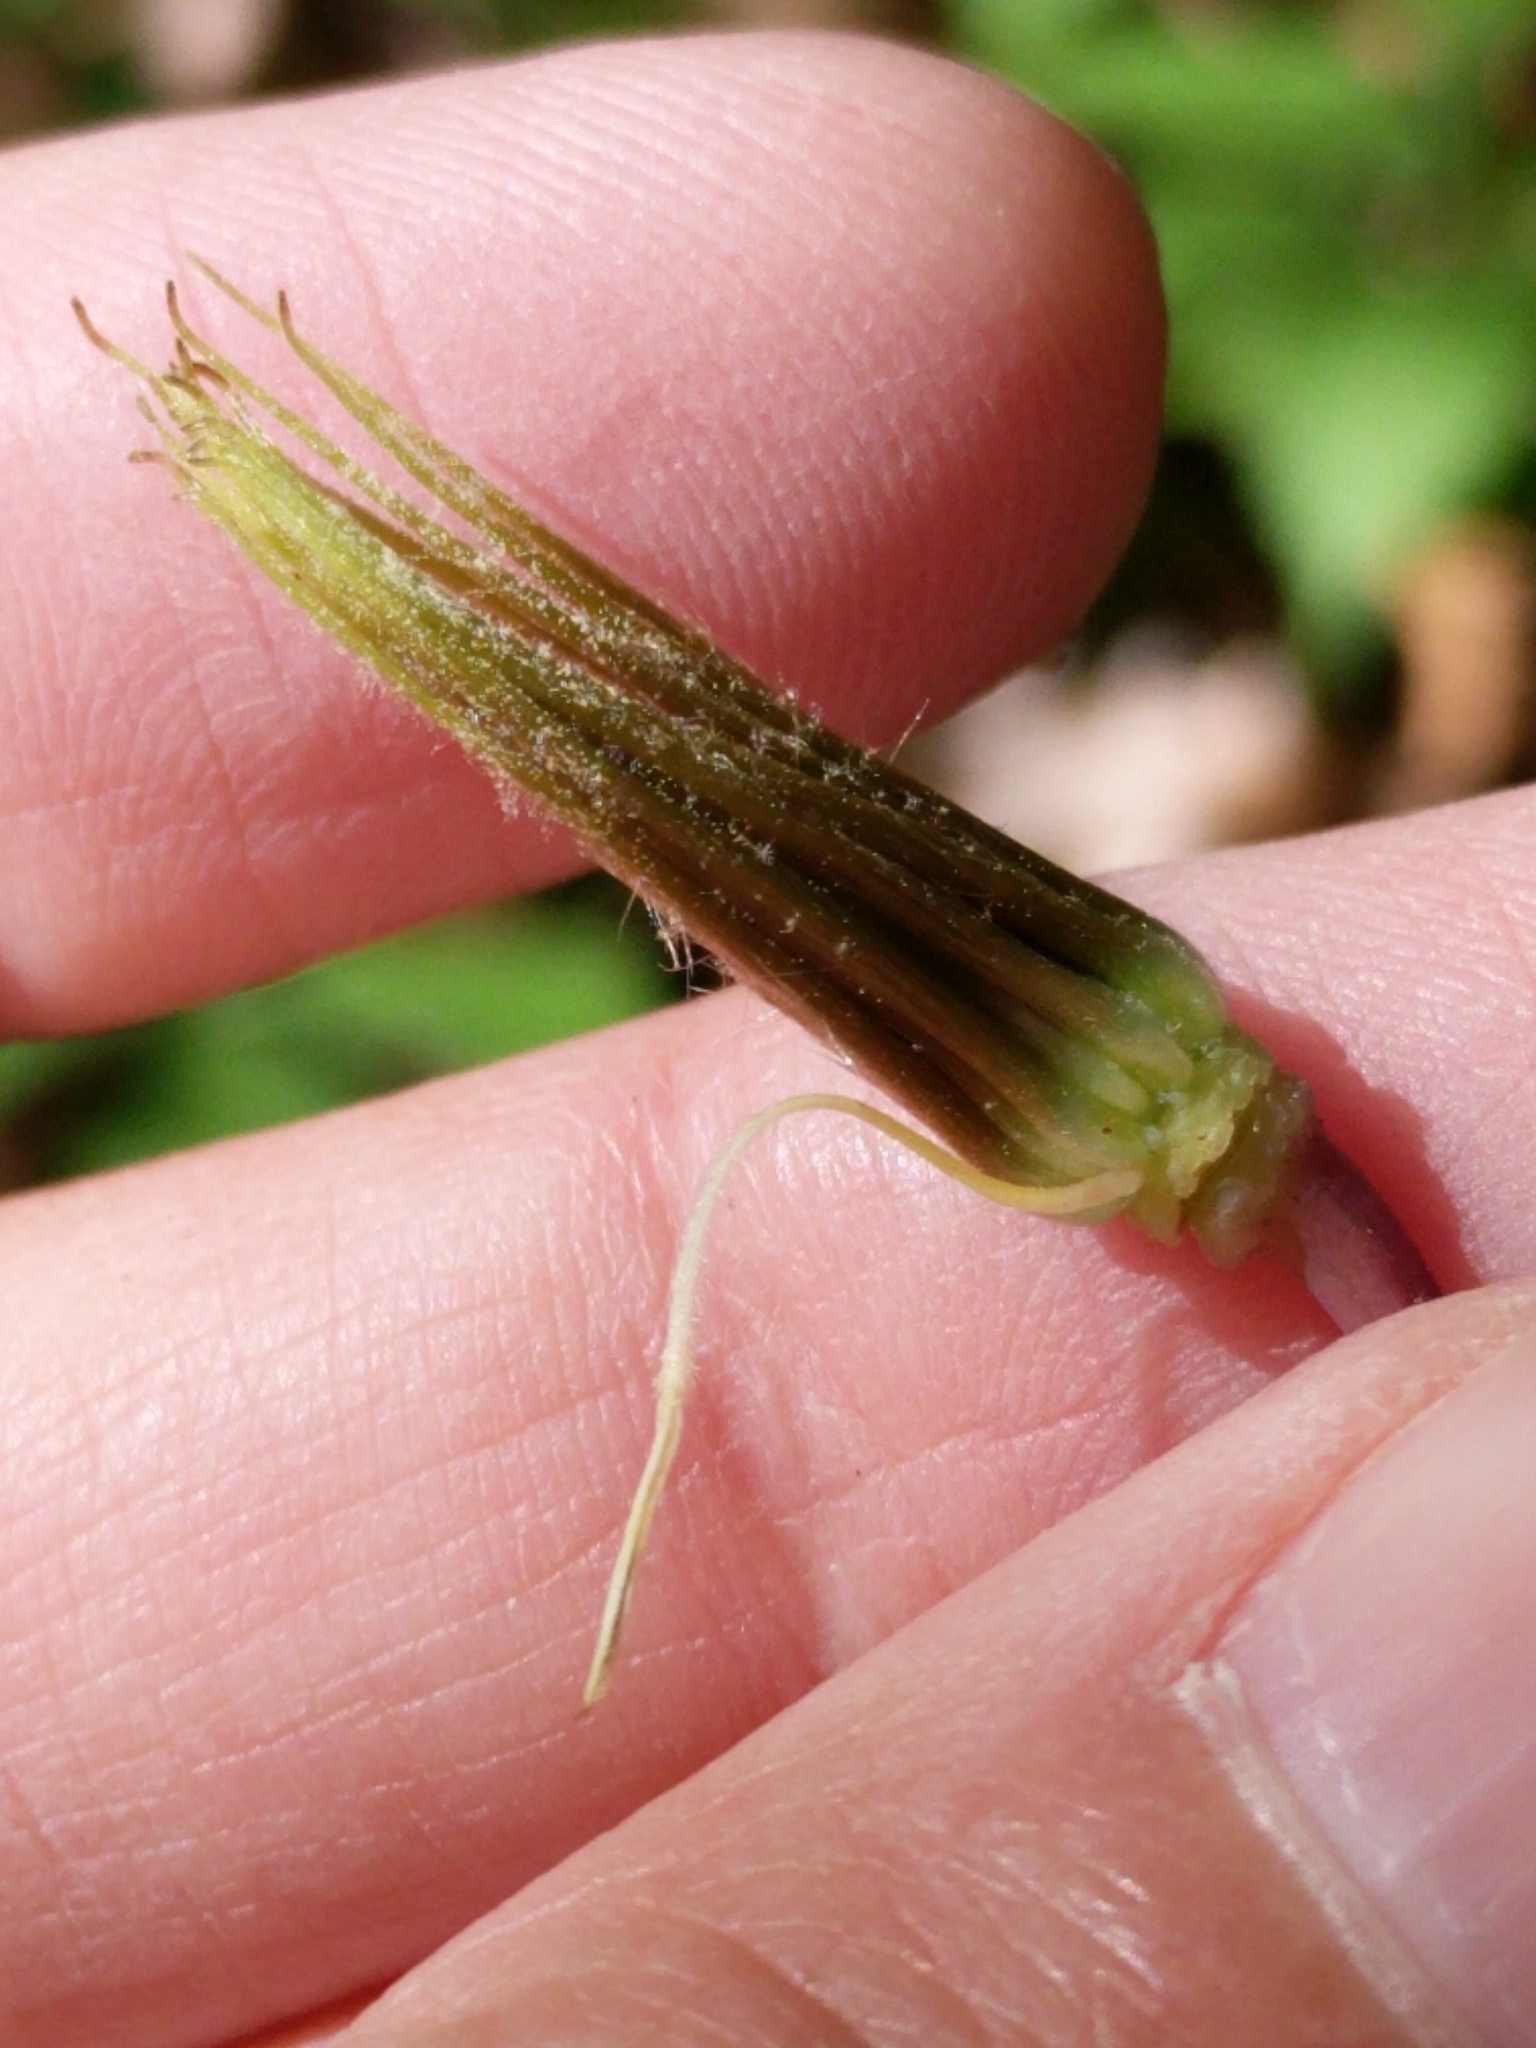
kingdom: Plantae
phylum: Tracheophyta
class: Magnoliopsida
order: Ranunculales
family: Ranunculaceae
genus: Clematis
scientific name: Clematis texensis
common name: Crimson clematis
